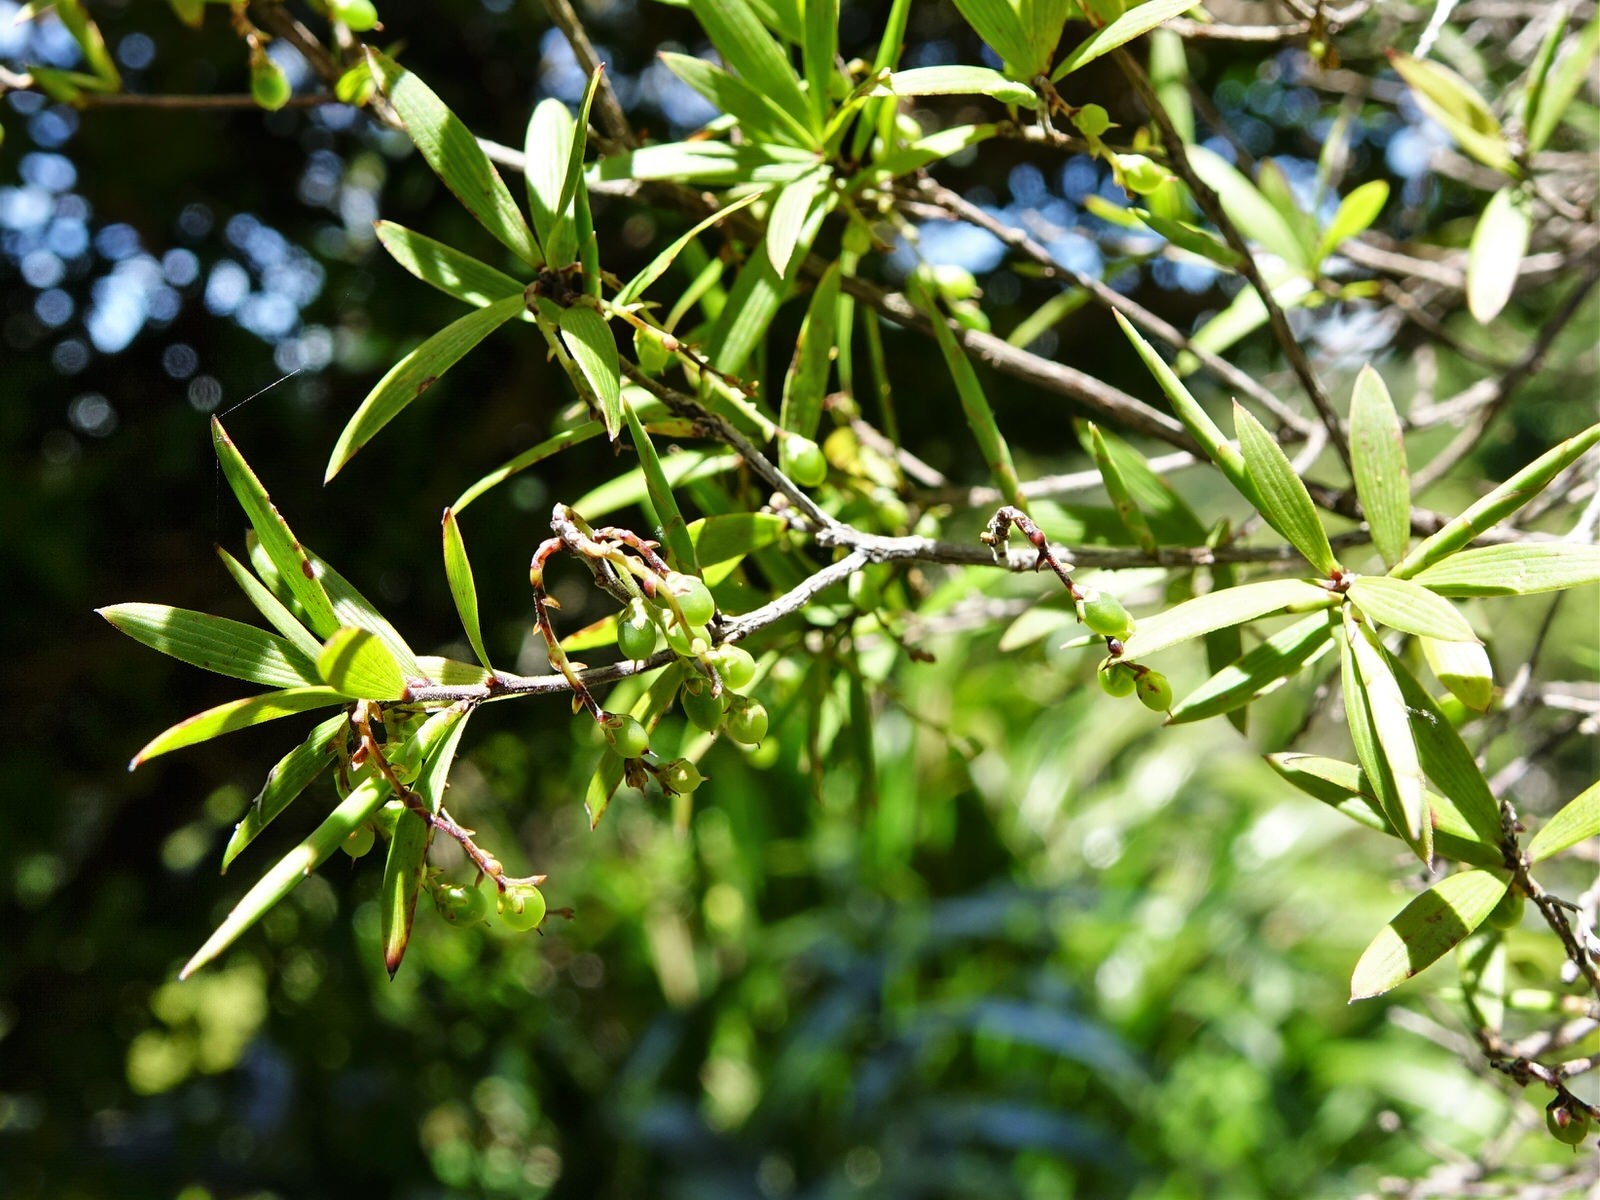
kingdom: Plantae
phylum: Tracheophyta
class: Magnoliopsida
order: Ericales
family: Ericaceae
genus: Leucopogon
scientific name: Leucopogon fasciculatus
